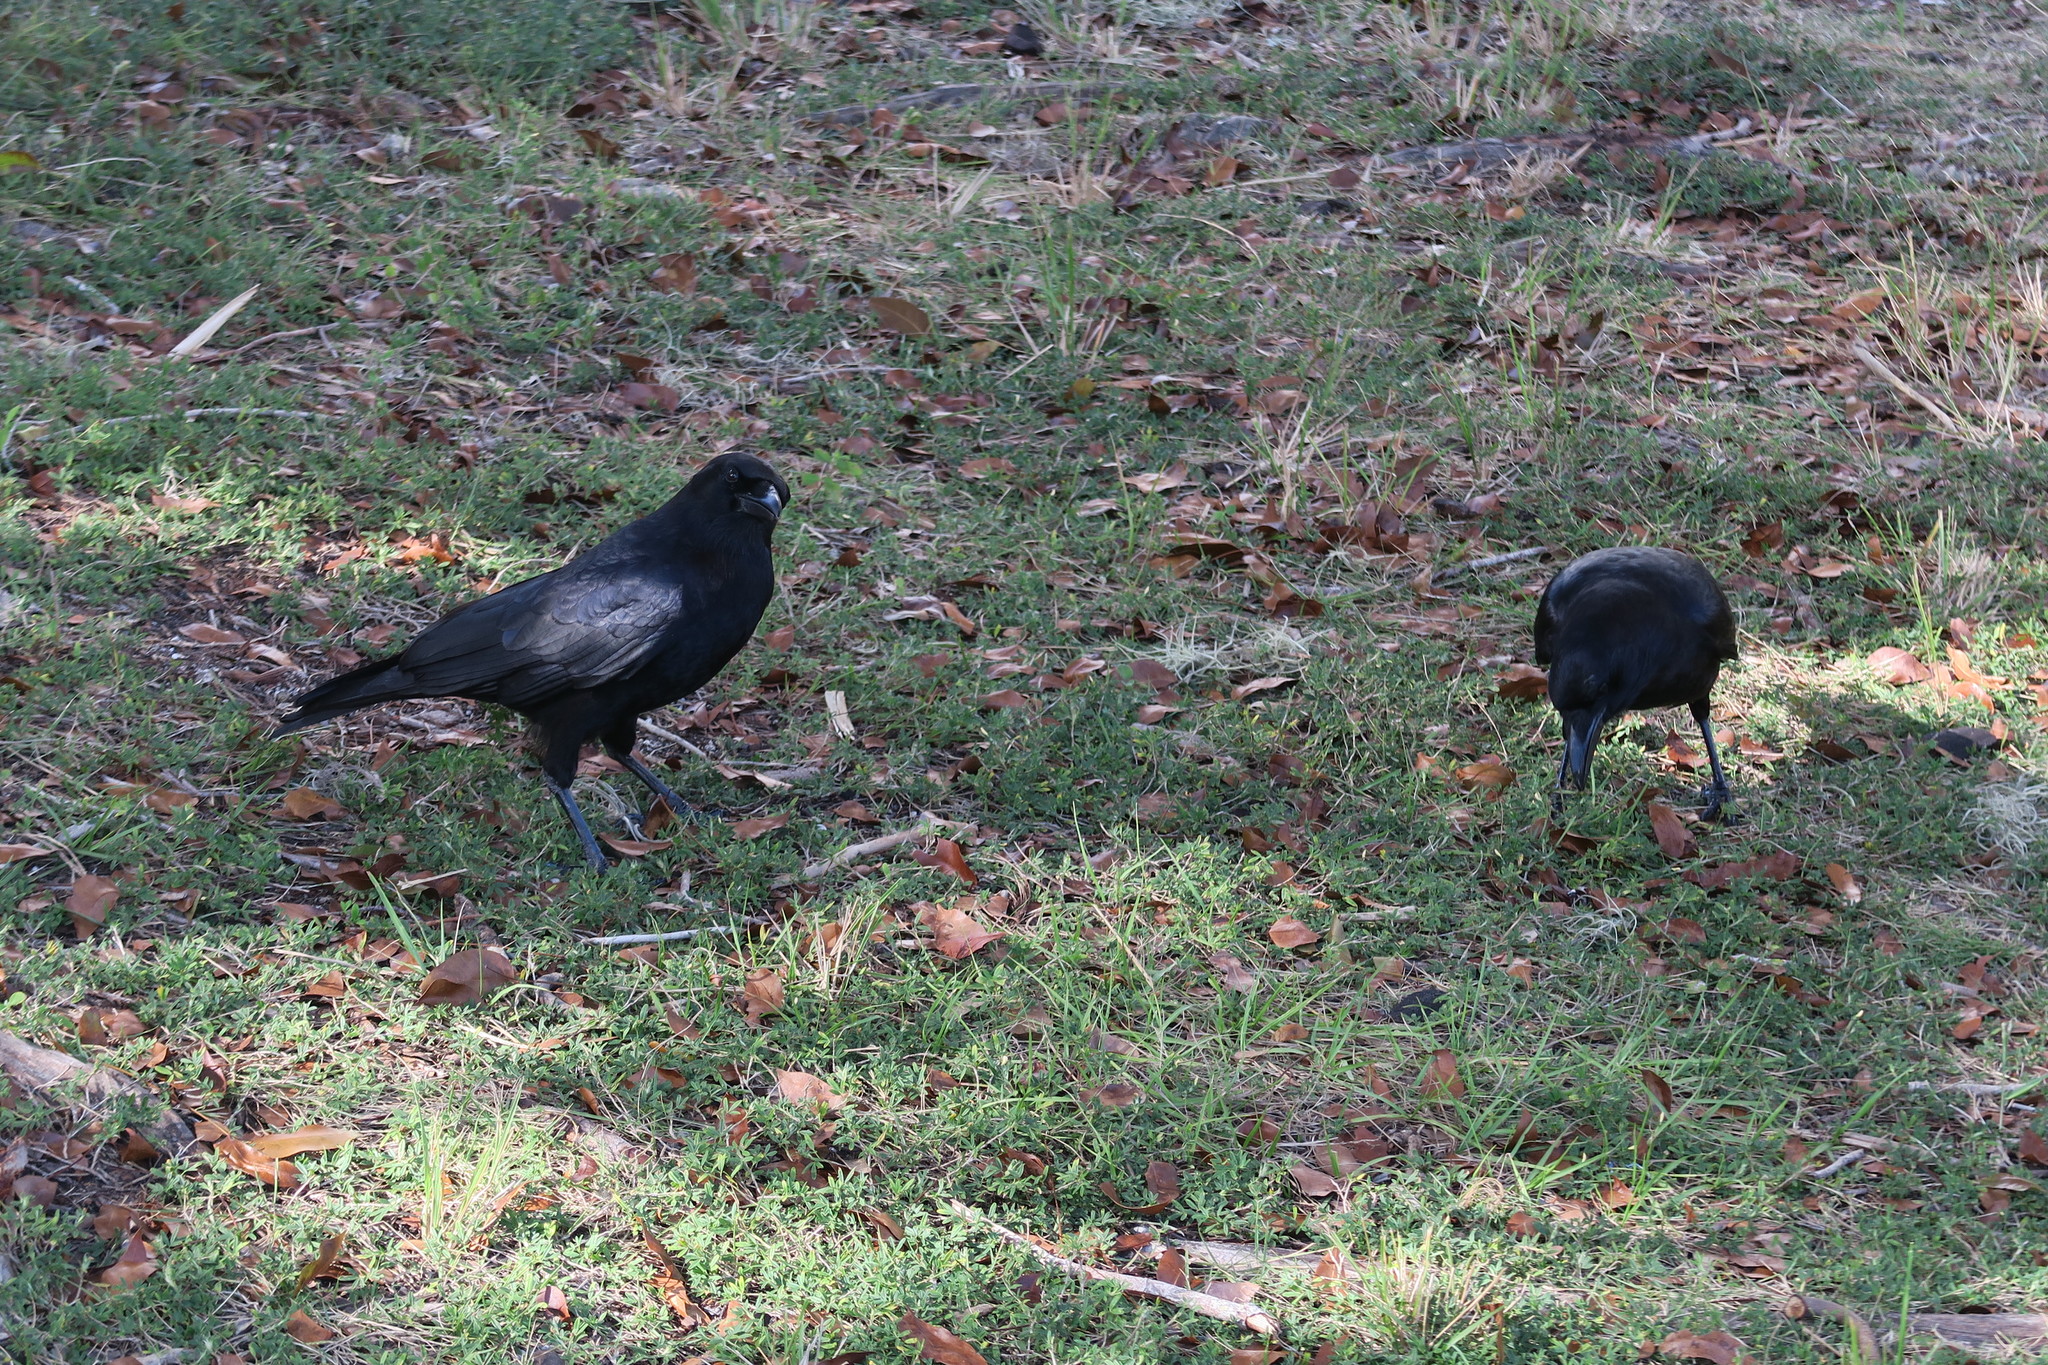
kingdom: Animalia
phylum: Chordata
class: Aves
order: Passeriformes
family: Corvidae
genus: Corvus
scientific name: Corvus brachyrhynchos
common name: American crow
